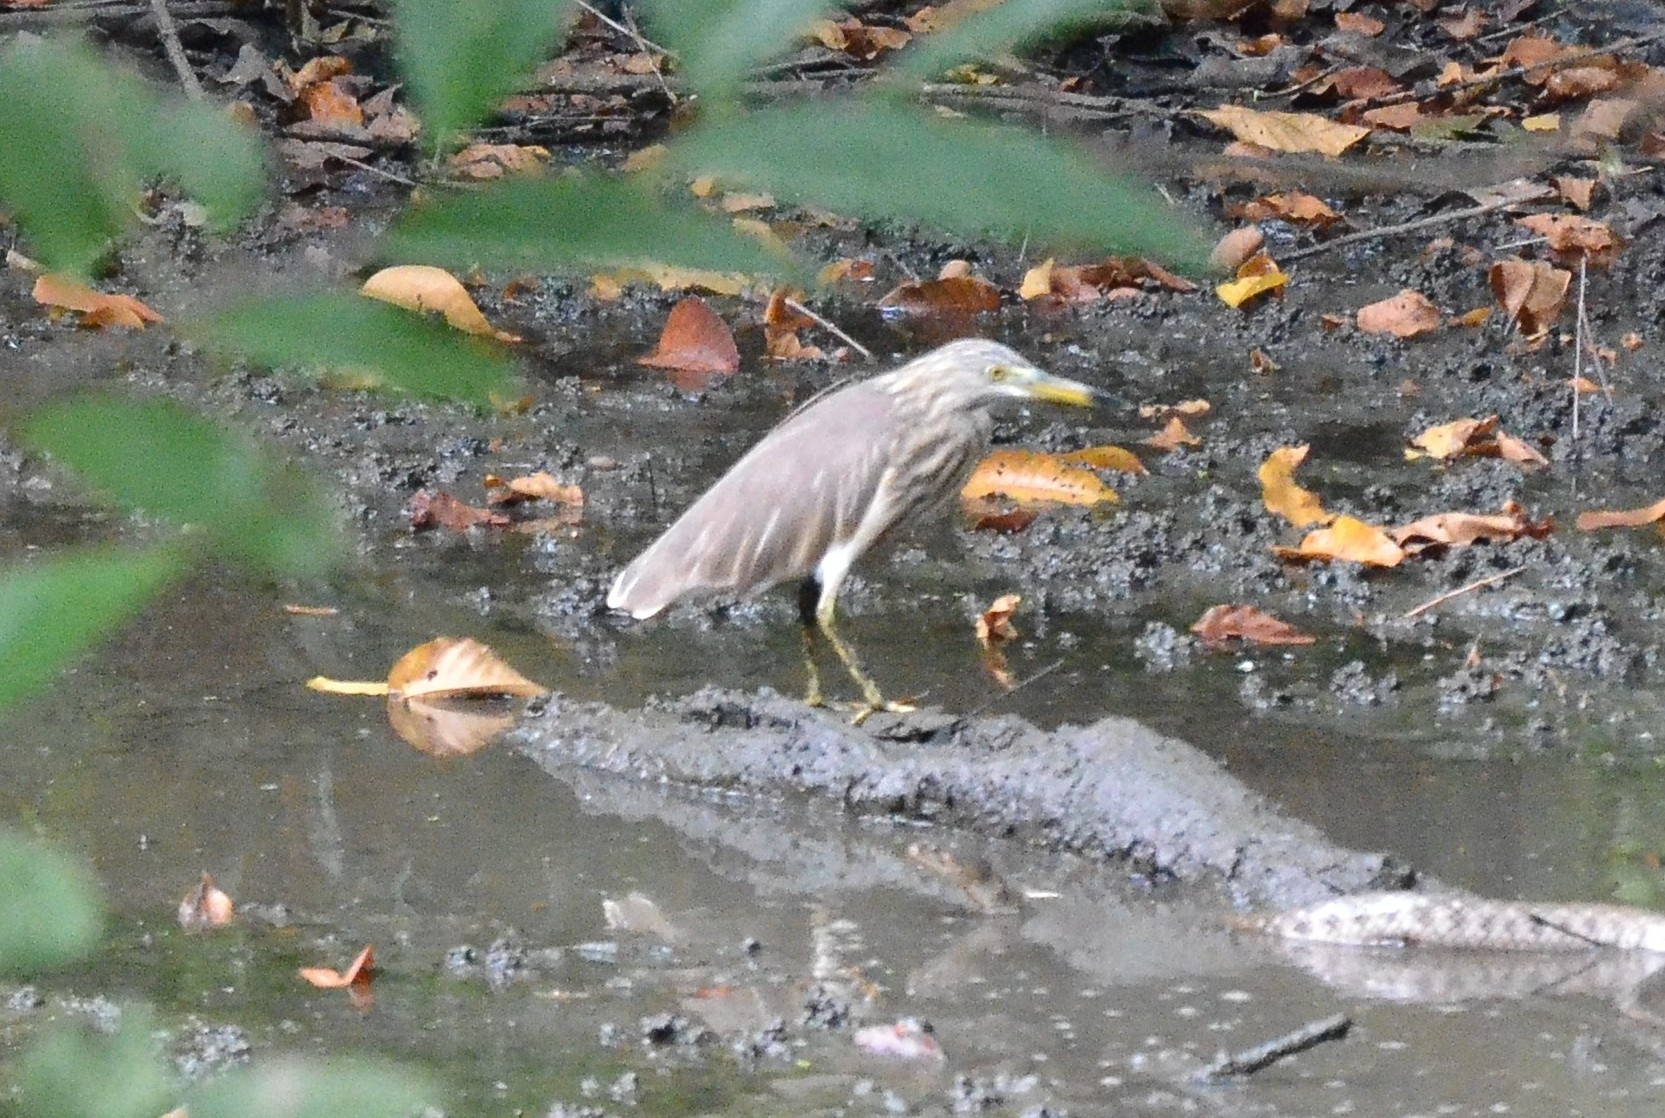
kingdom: Animalia
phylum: Chordata
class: Aves
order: Pelecaniformes
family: Ardeidae
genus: Ardeola
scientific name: Ardeola grayii
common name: Indian pond heron
